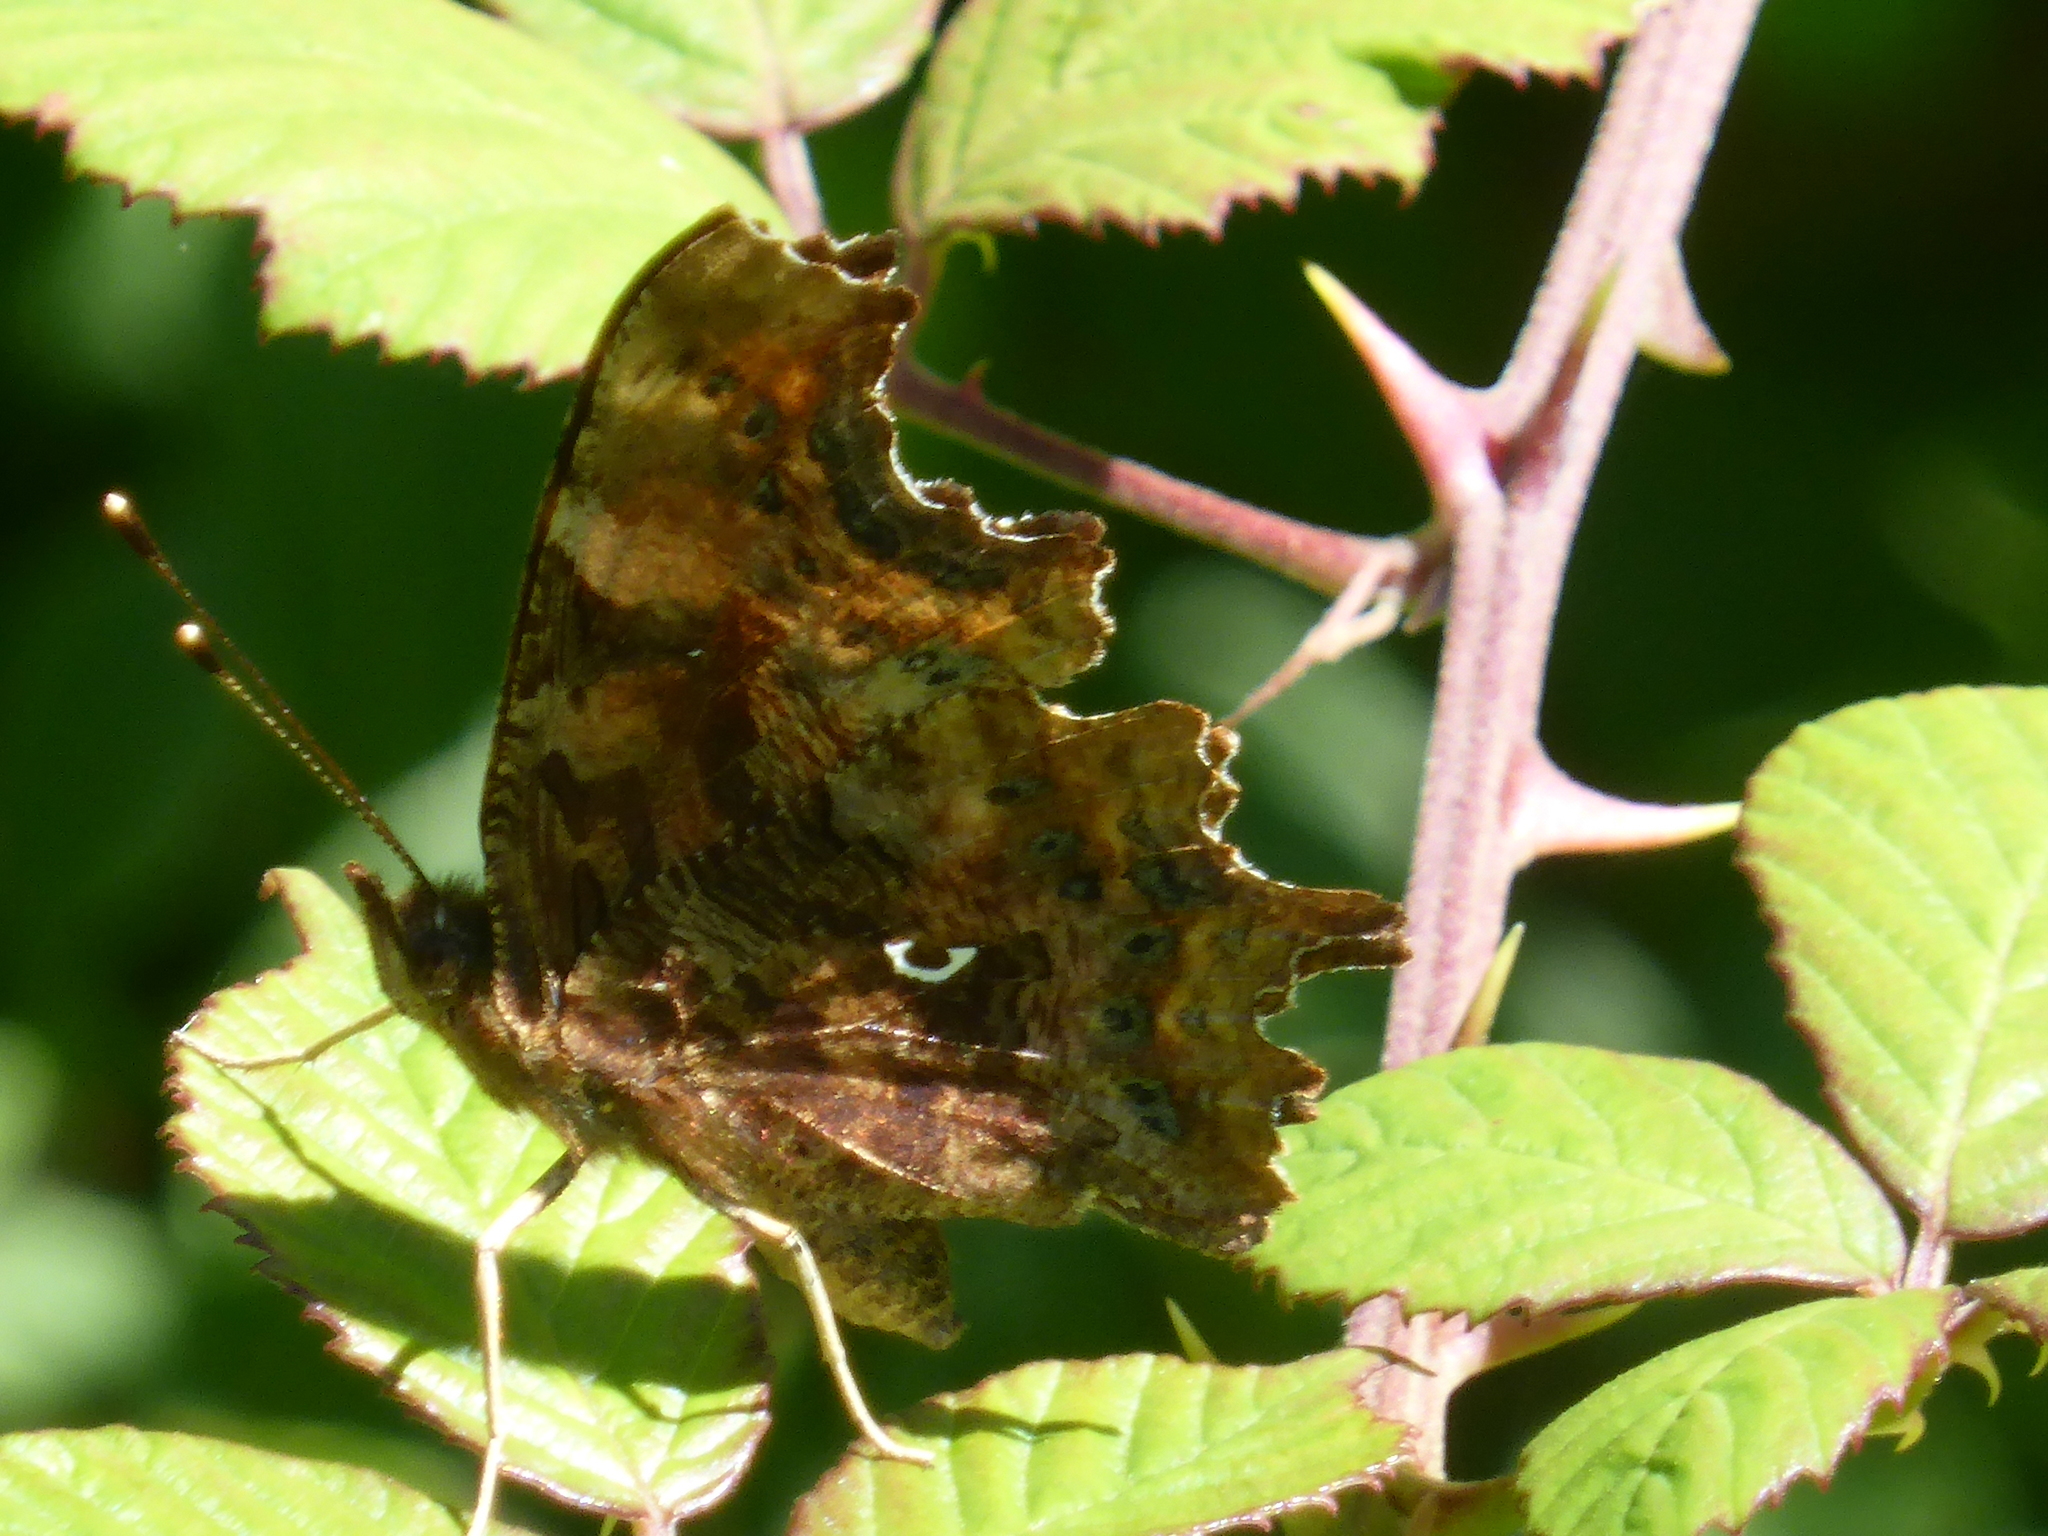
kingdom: Animalia
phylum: Arthropoda
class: Insecta
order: Lepidoptera
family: Nymphalidae
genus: Polygonia
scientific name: Polygonia c-album
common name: Comma
